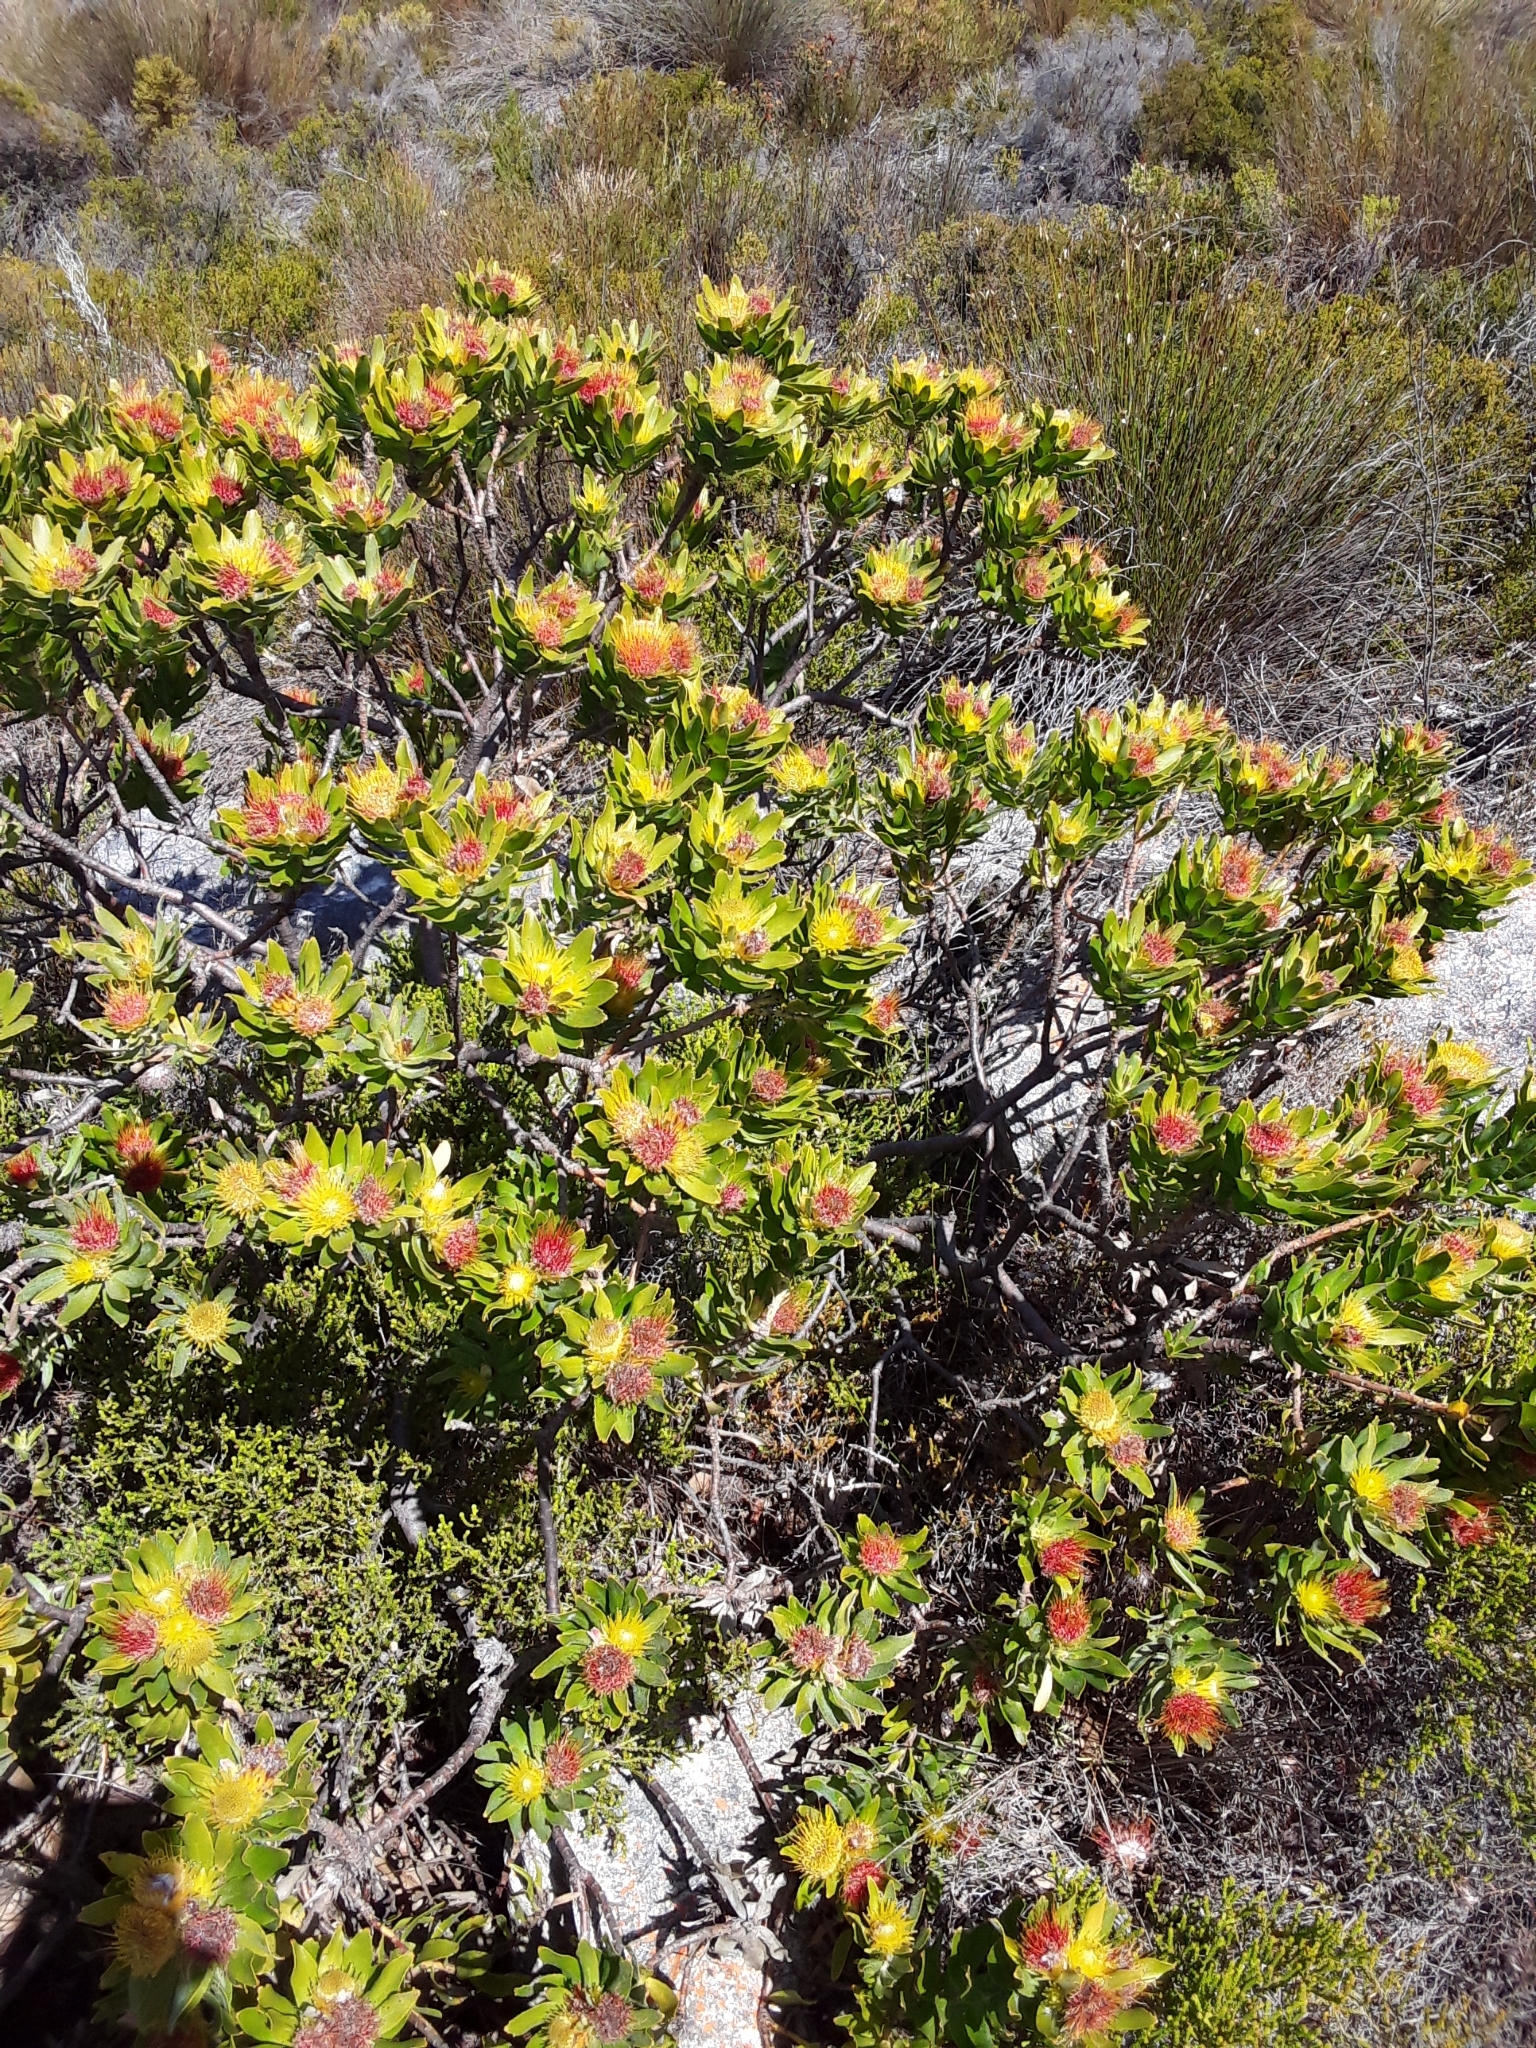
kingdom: Plantae
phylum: Tracheophyta
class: Magnoliopsida
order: Proteales
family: Proteaceae
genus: Leucospermum
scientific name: Leucospermum oleifolium
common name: Matches
